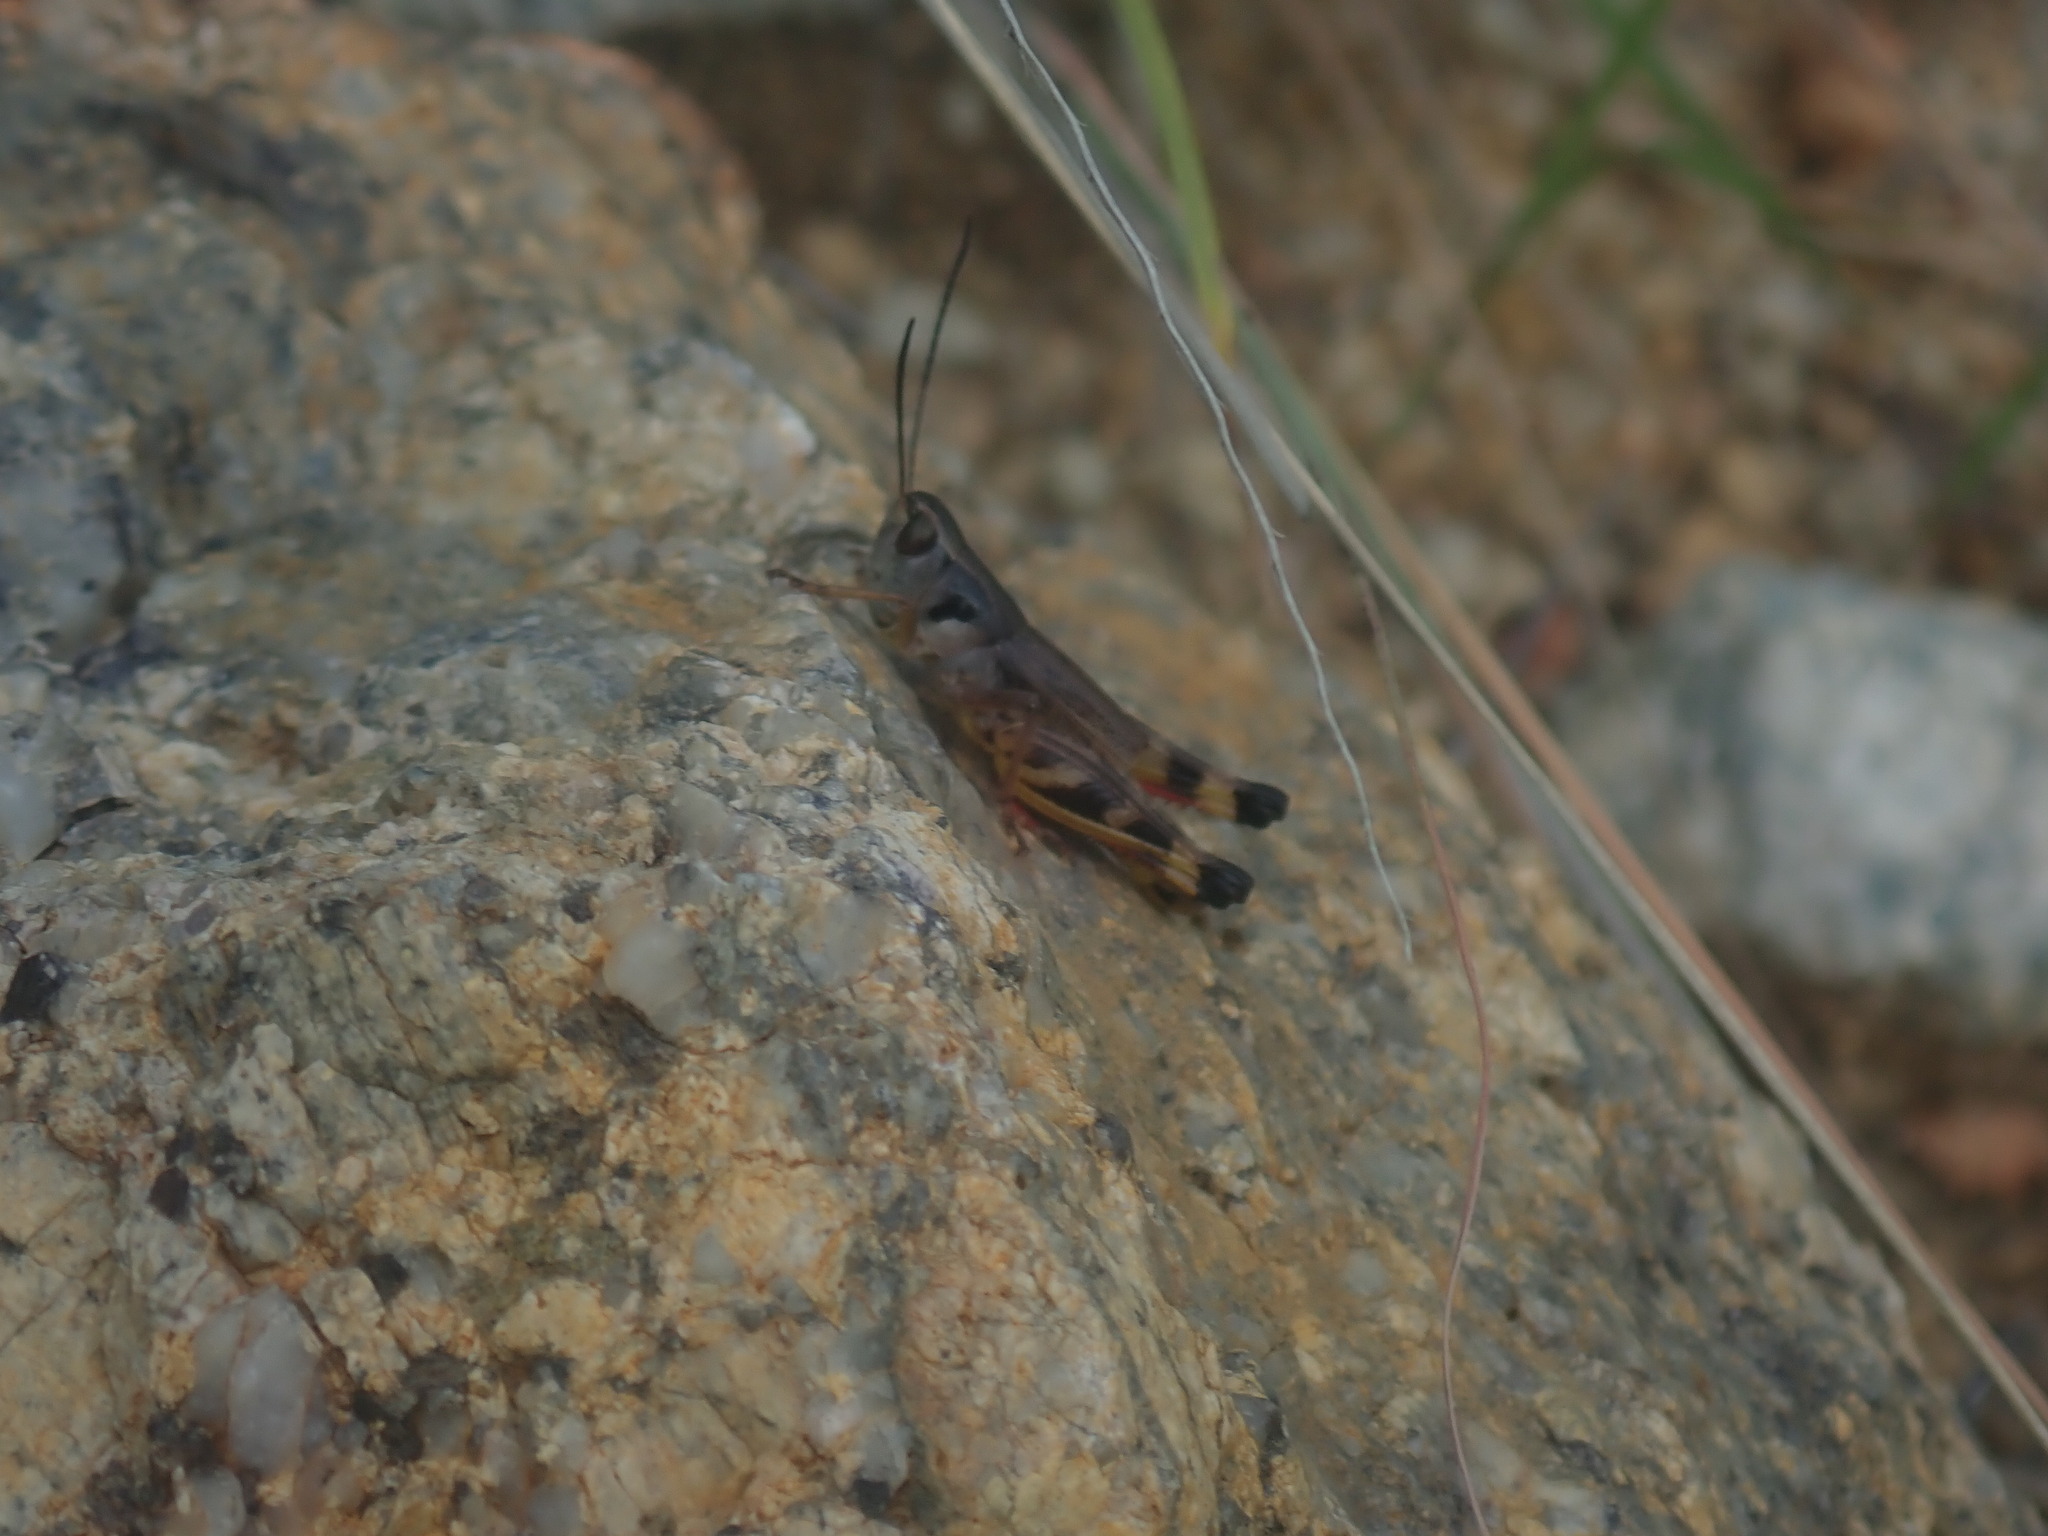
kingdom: Animalia
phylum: Arthropoda
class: Insecta
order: Orthoptera
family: Acrididae
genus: Boopedon
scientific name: Boopedon flaviventris
